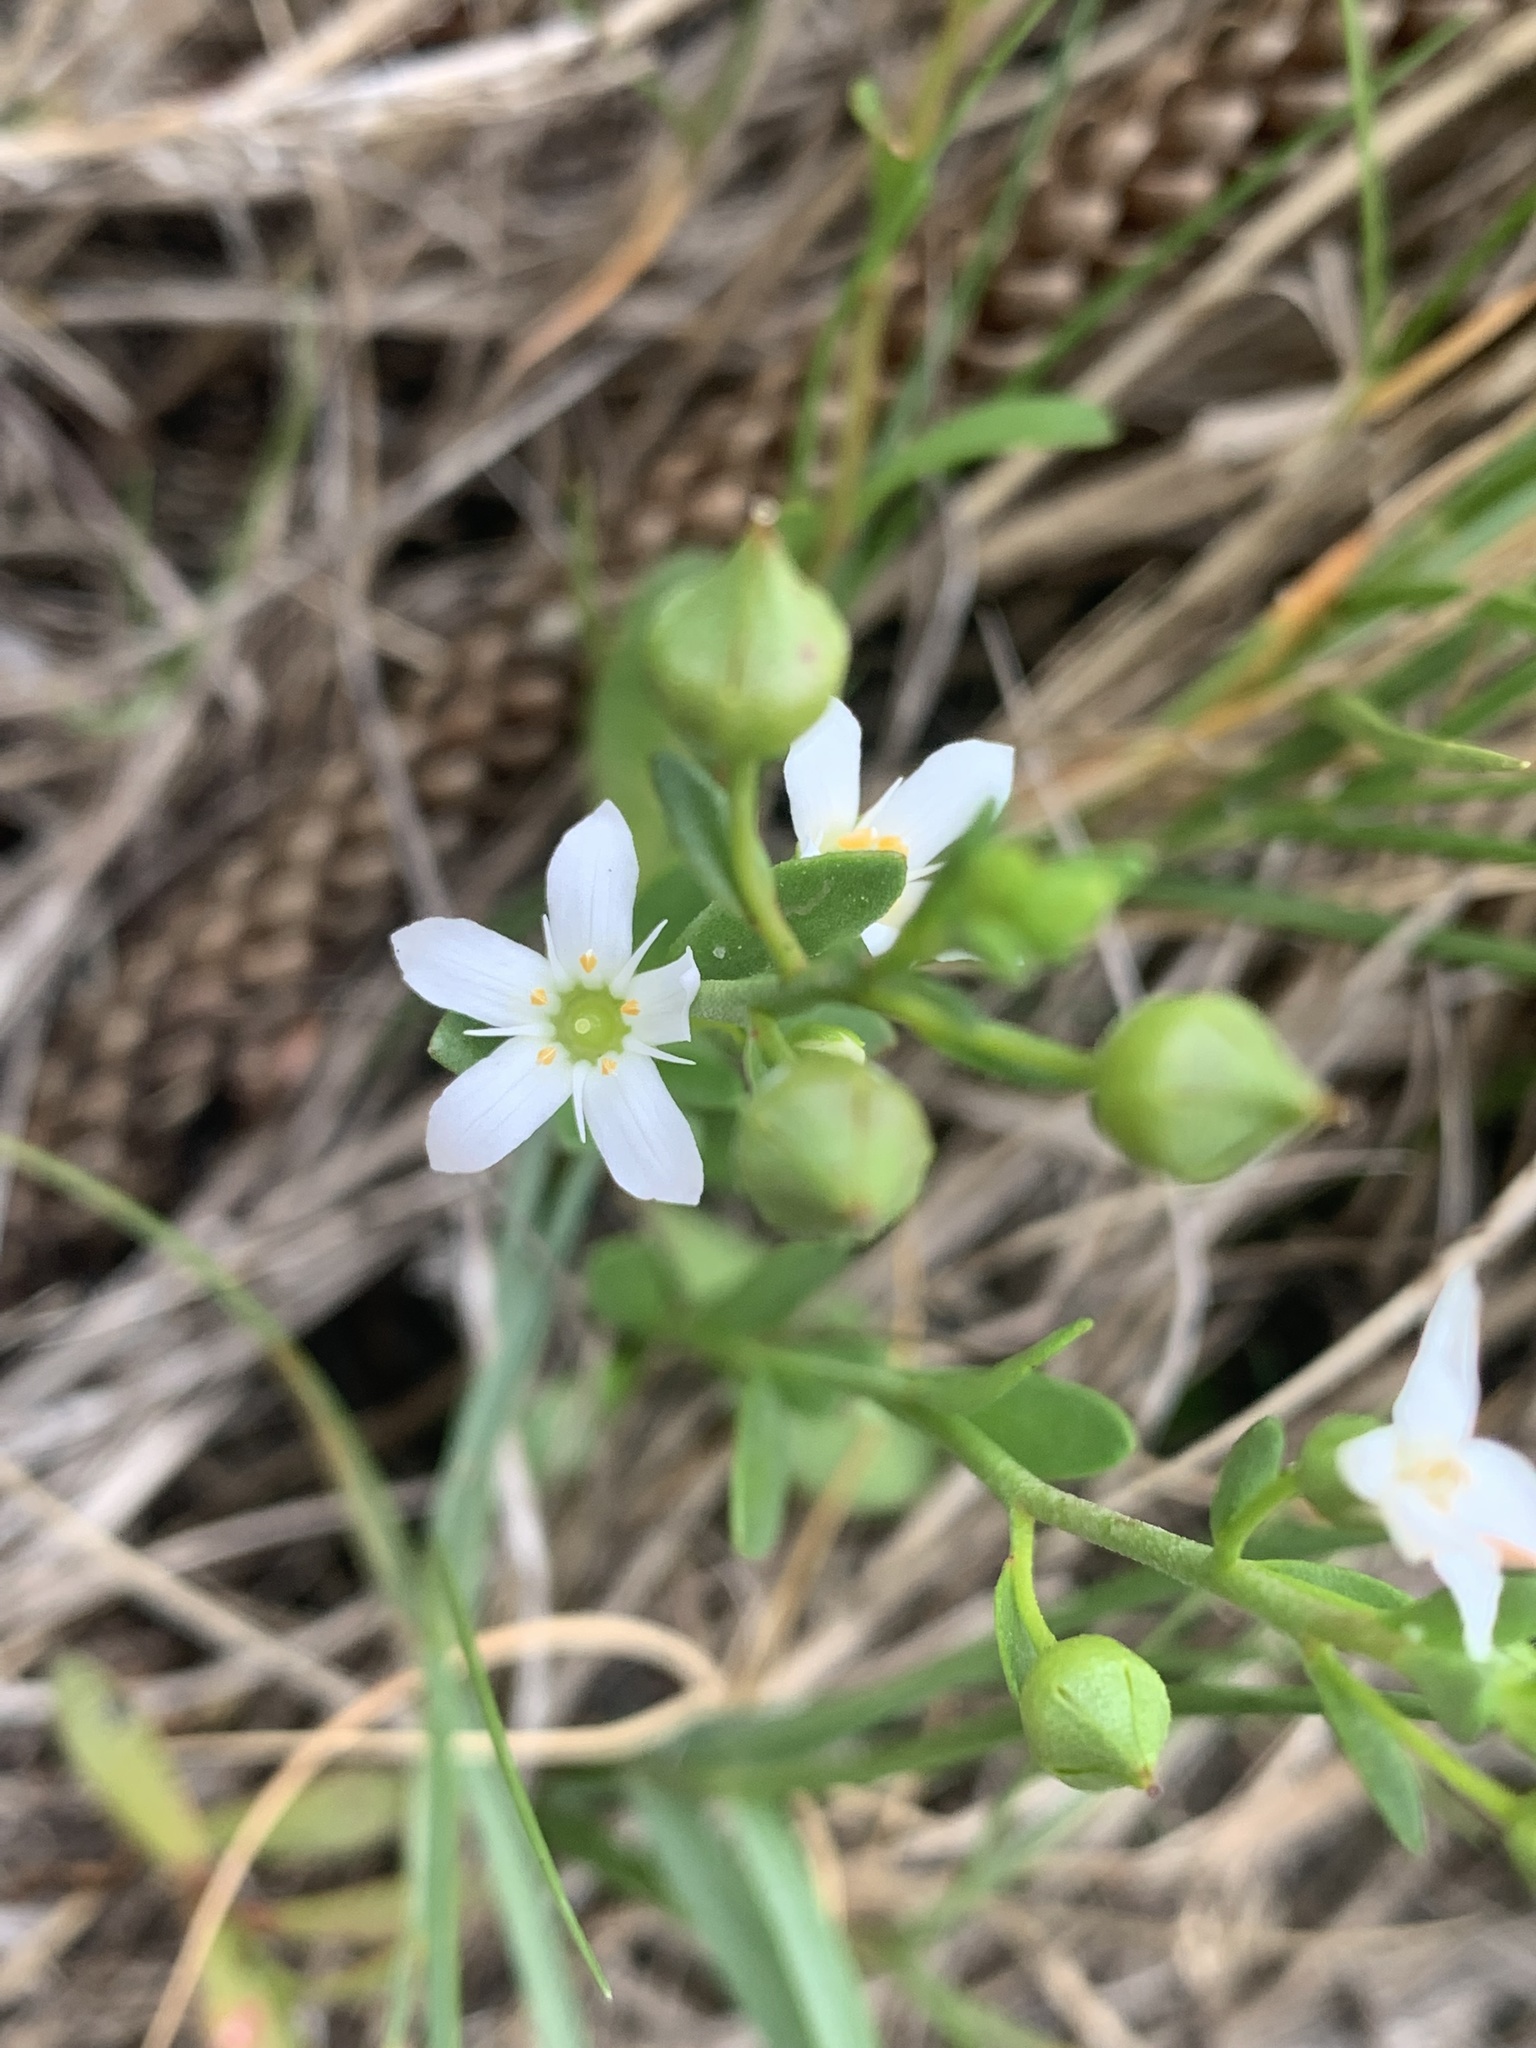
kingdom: Plantae
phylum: Tracheophyta
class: Magnoliopsida
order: Ericales
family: Primulaceae
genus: Samolus
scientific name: Samolus repens
